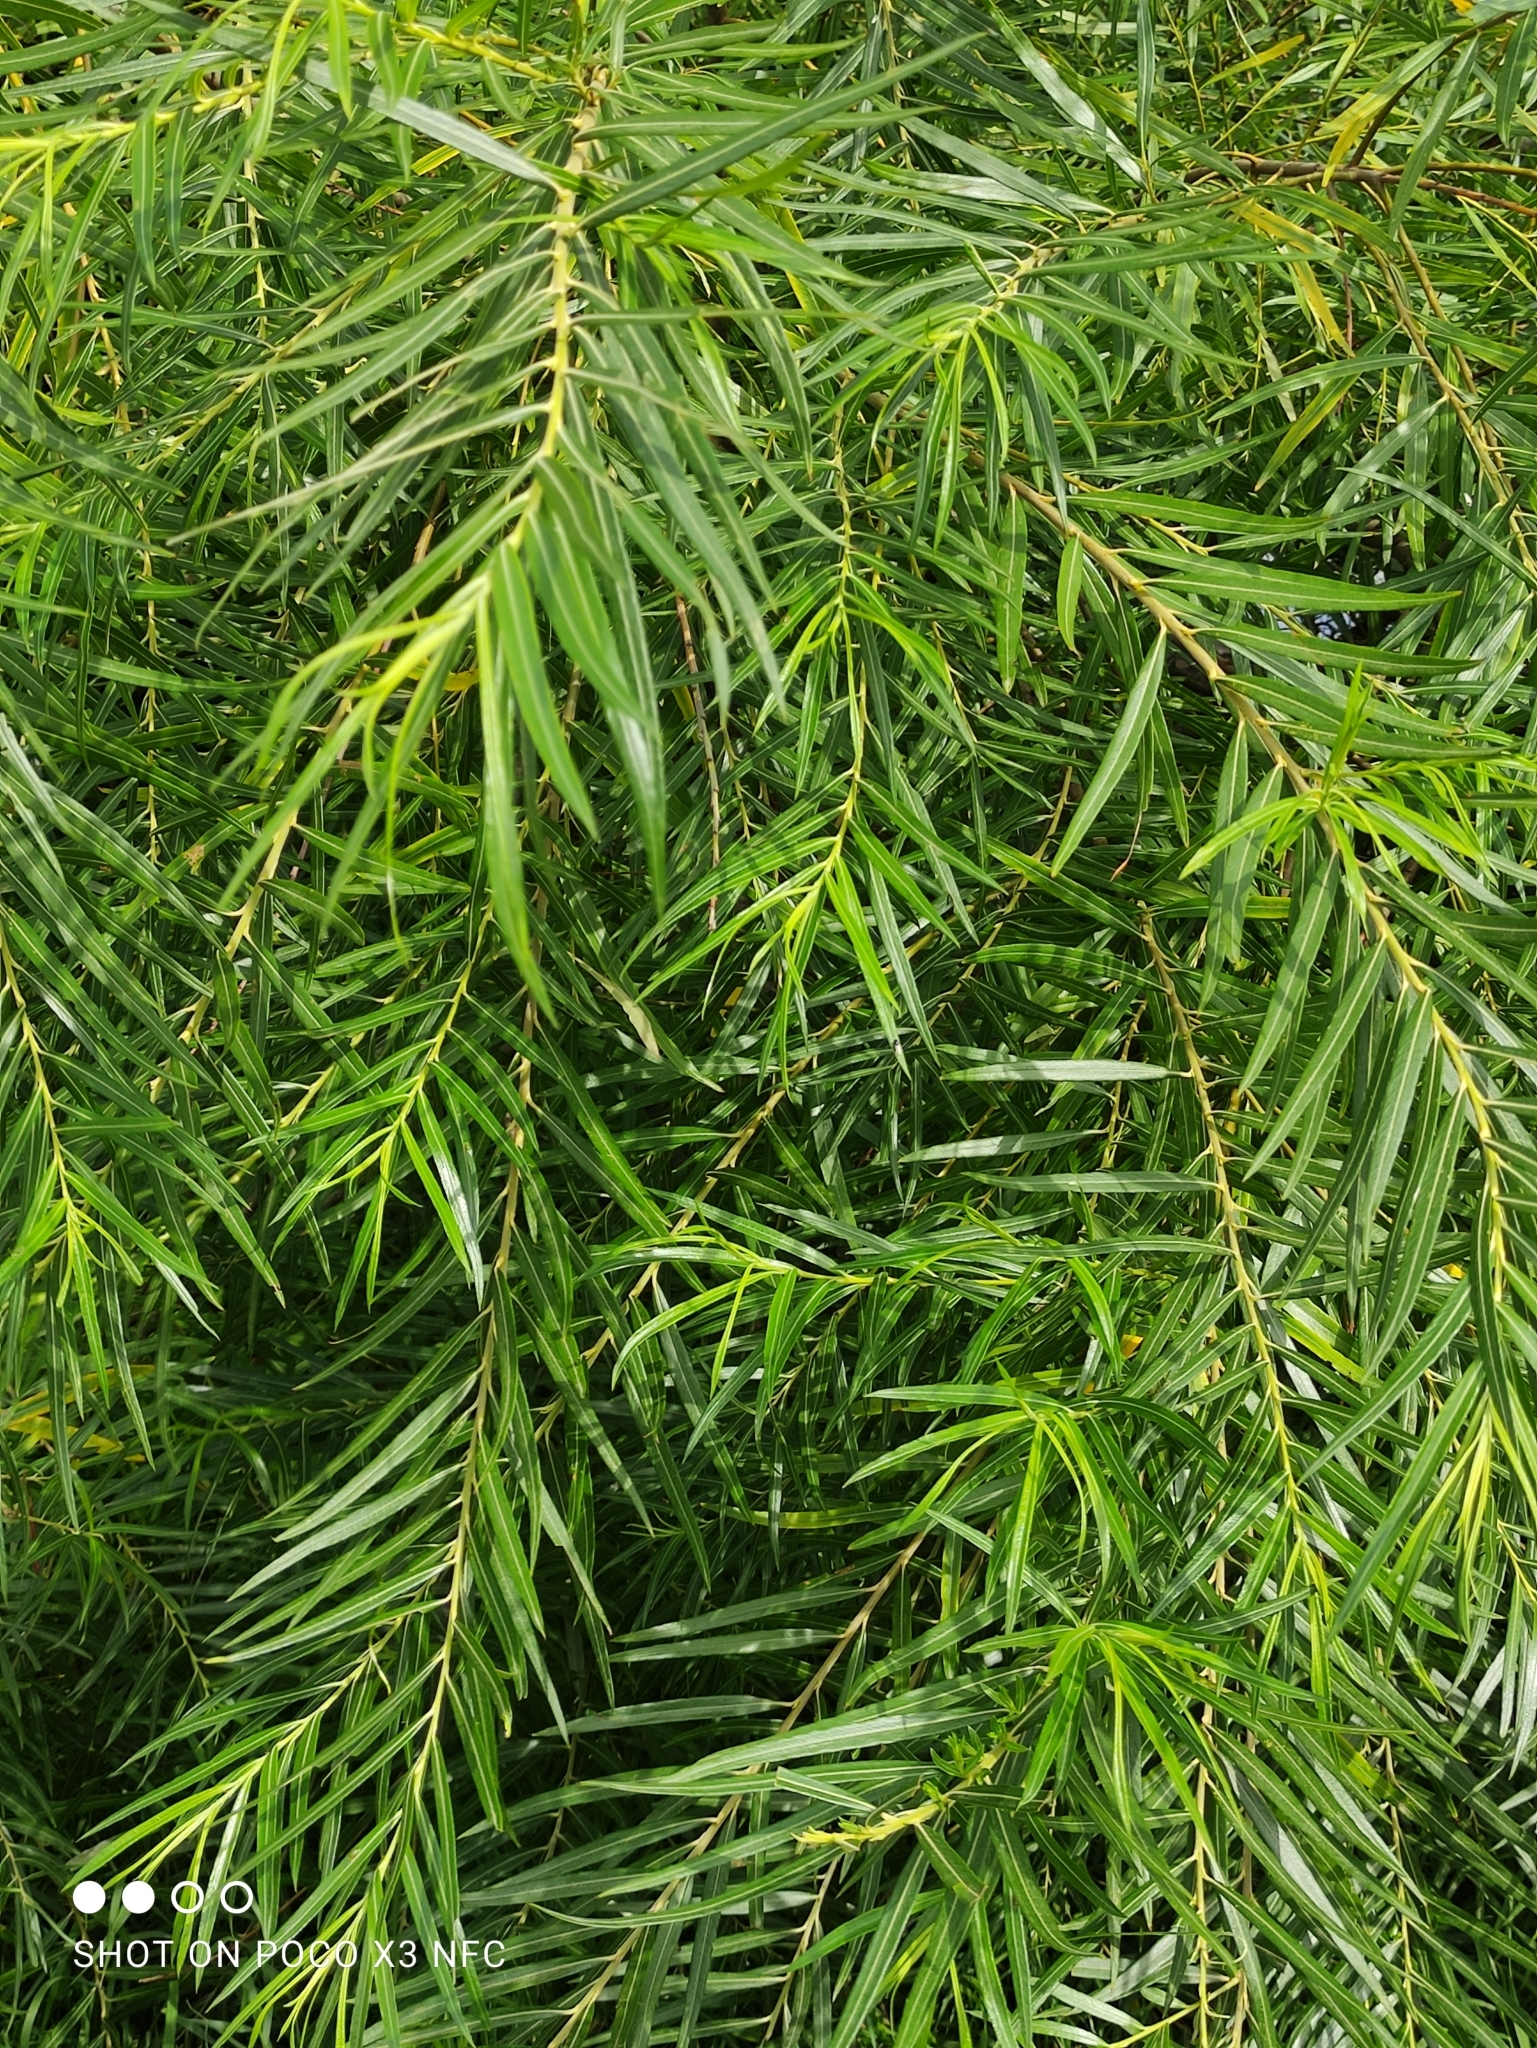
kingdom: Plantae
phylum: Tracheophyta
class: Magnoliopsida
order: Malpighiales
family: Salicaceae
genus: Salix
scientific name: Salix viminalis
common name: Osier
